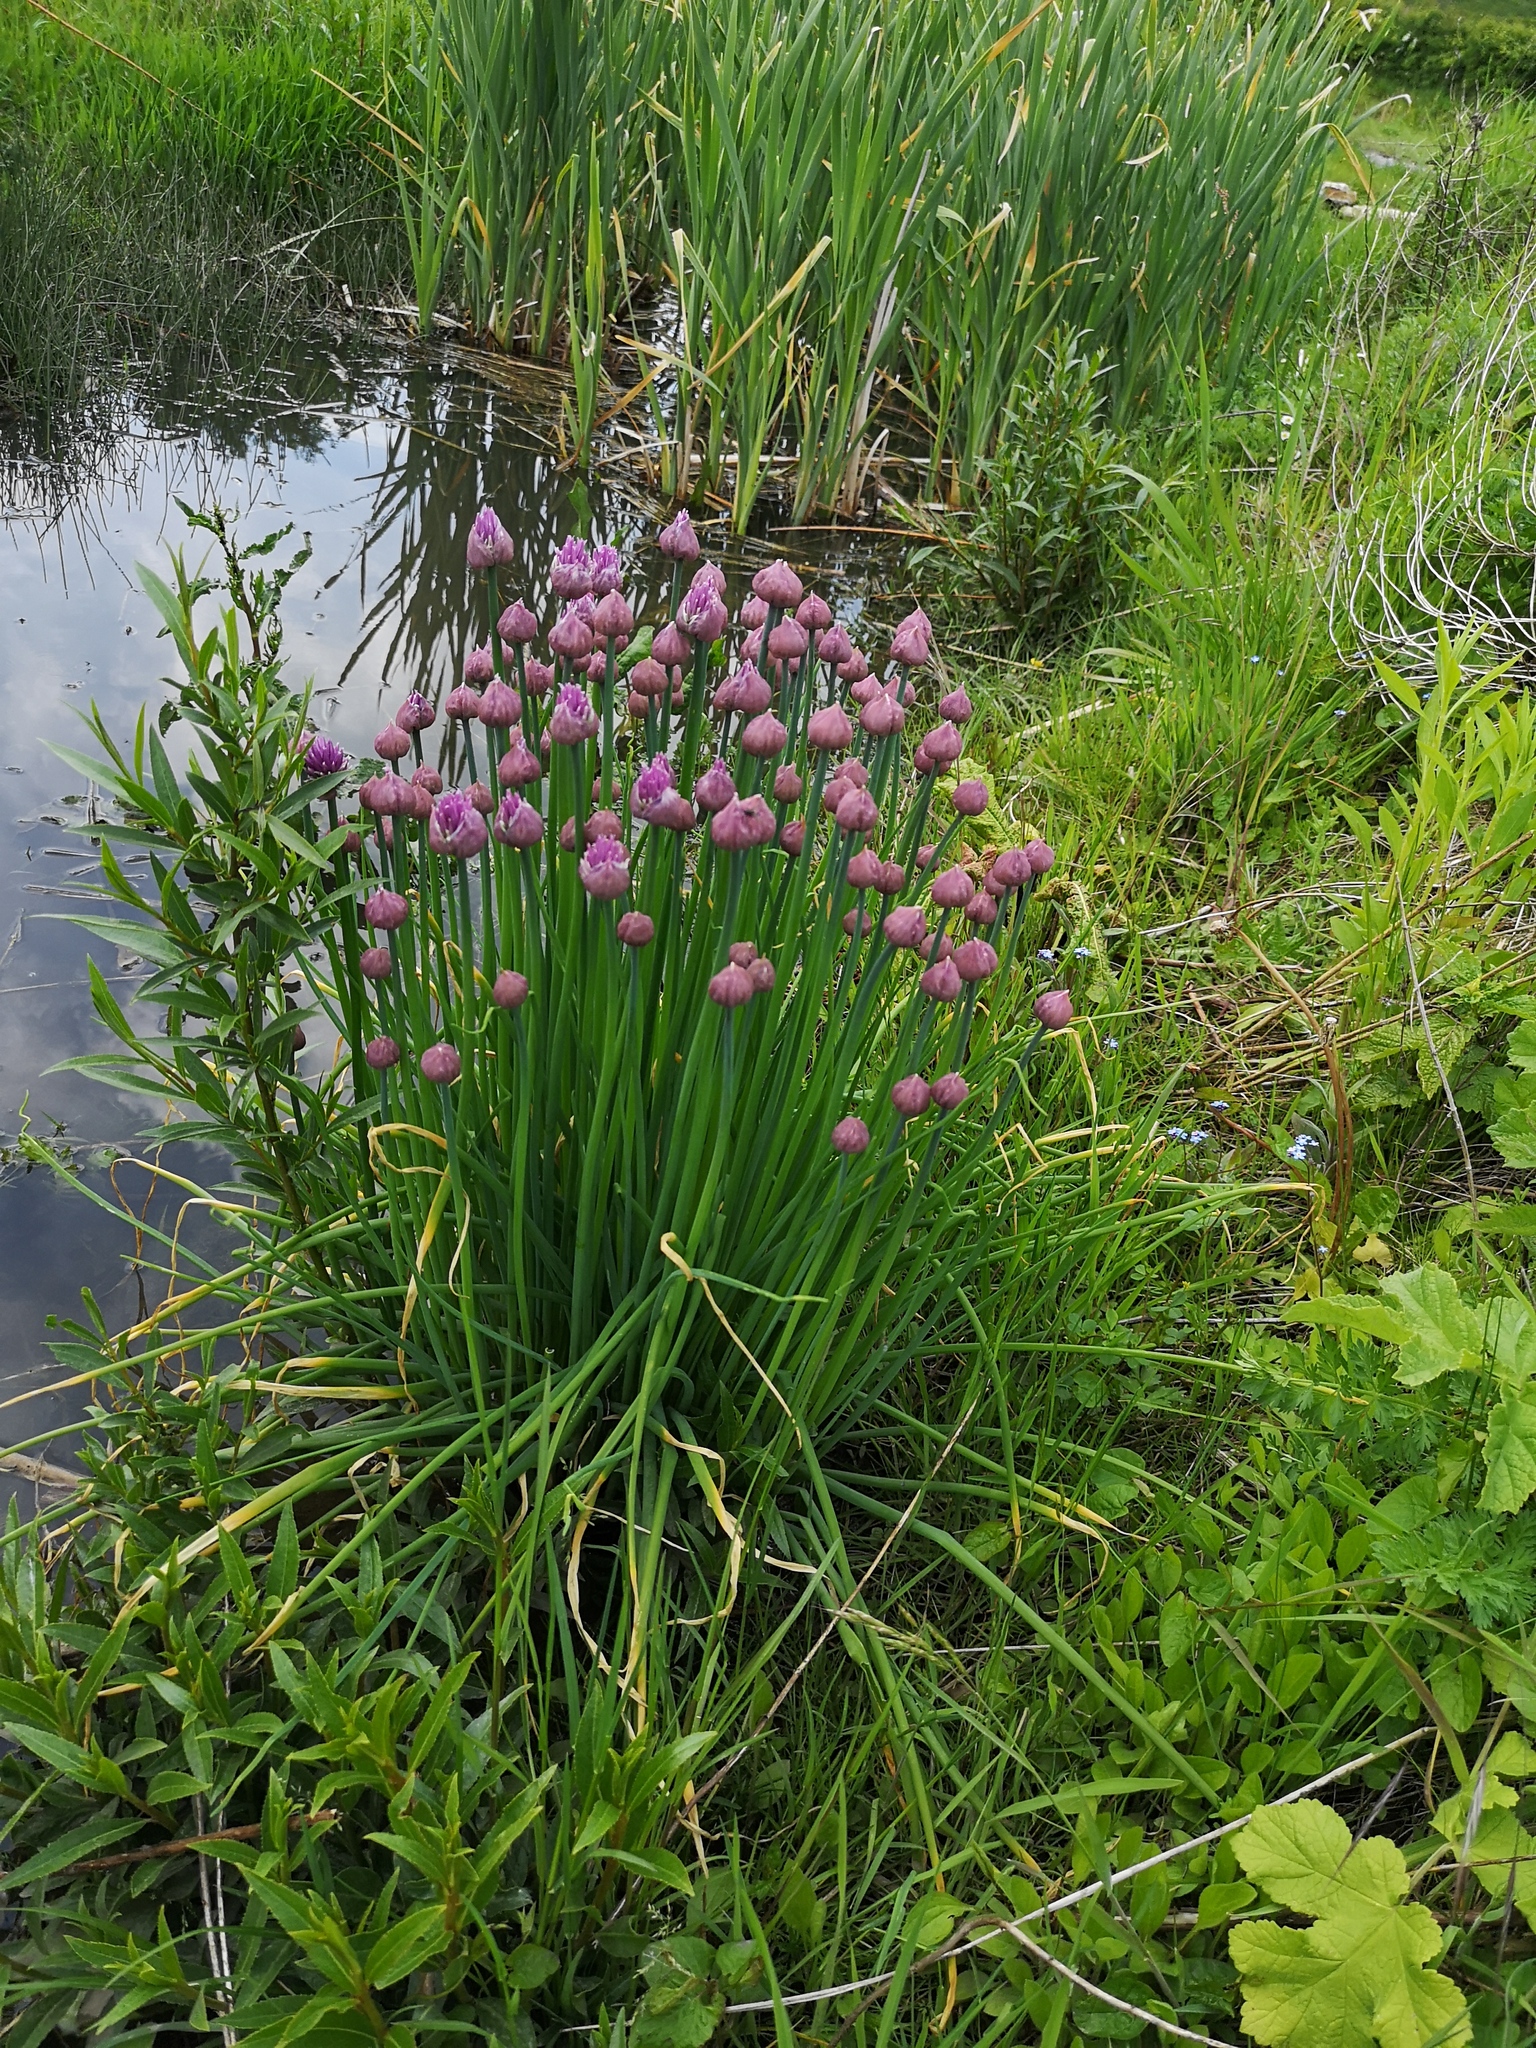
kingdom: Plantae
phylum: Tracheophyta
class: Liliopsida
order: Asparagales
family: Amaryllidaceae
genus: Allium
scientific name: Allium schoenoprasum
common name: Chives
